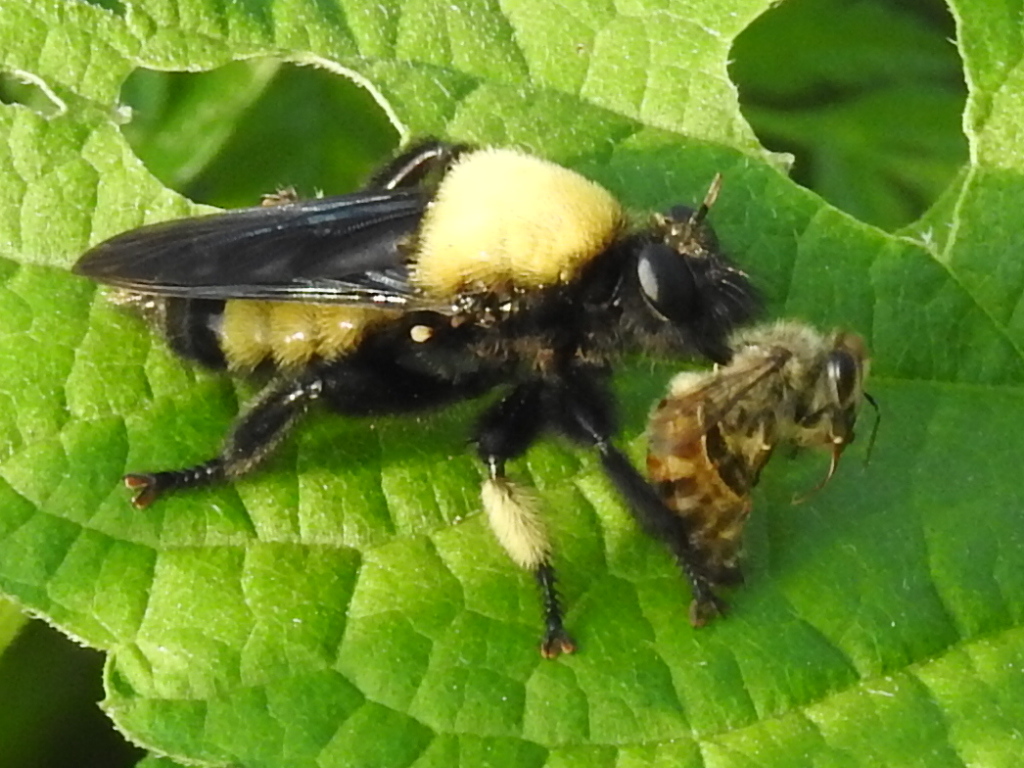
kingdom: Animalia
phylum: Arthropoda
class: Insecta
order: Diptera
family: Asilidae
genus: Laphria
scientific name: Laphria macquarti
